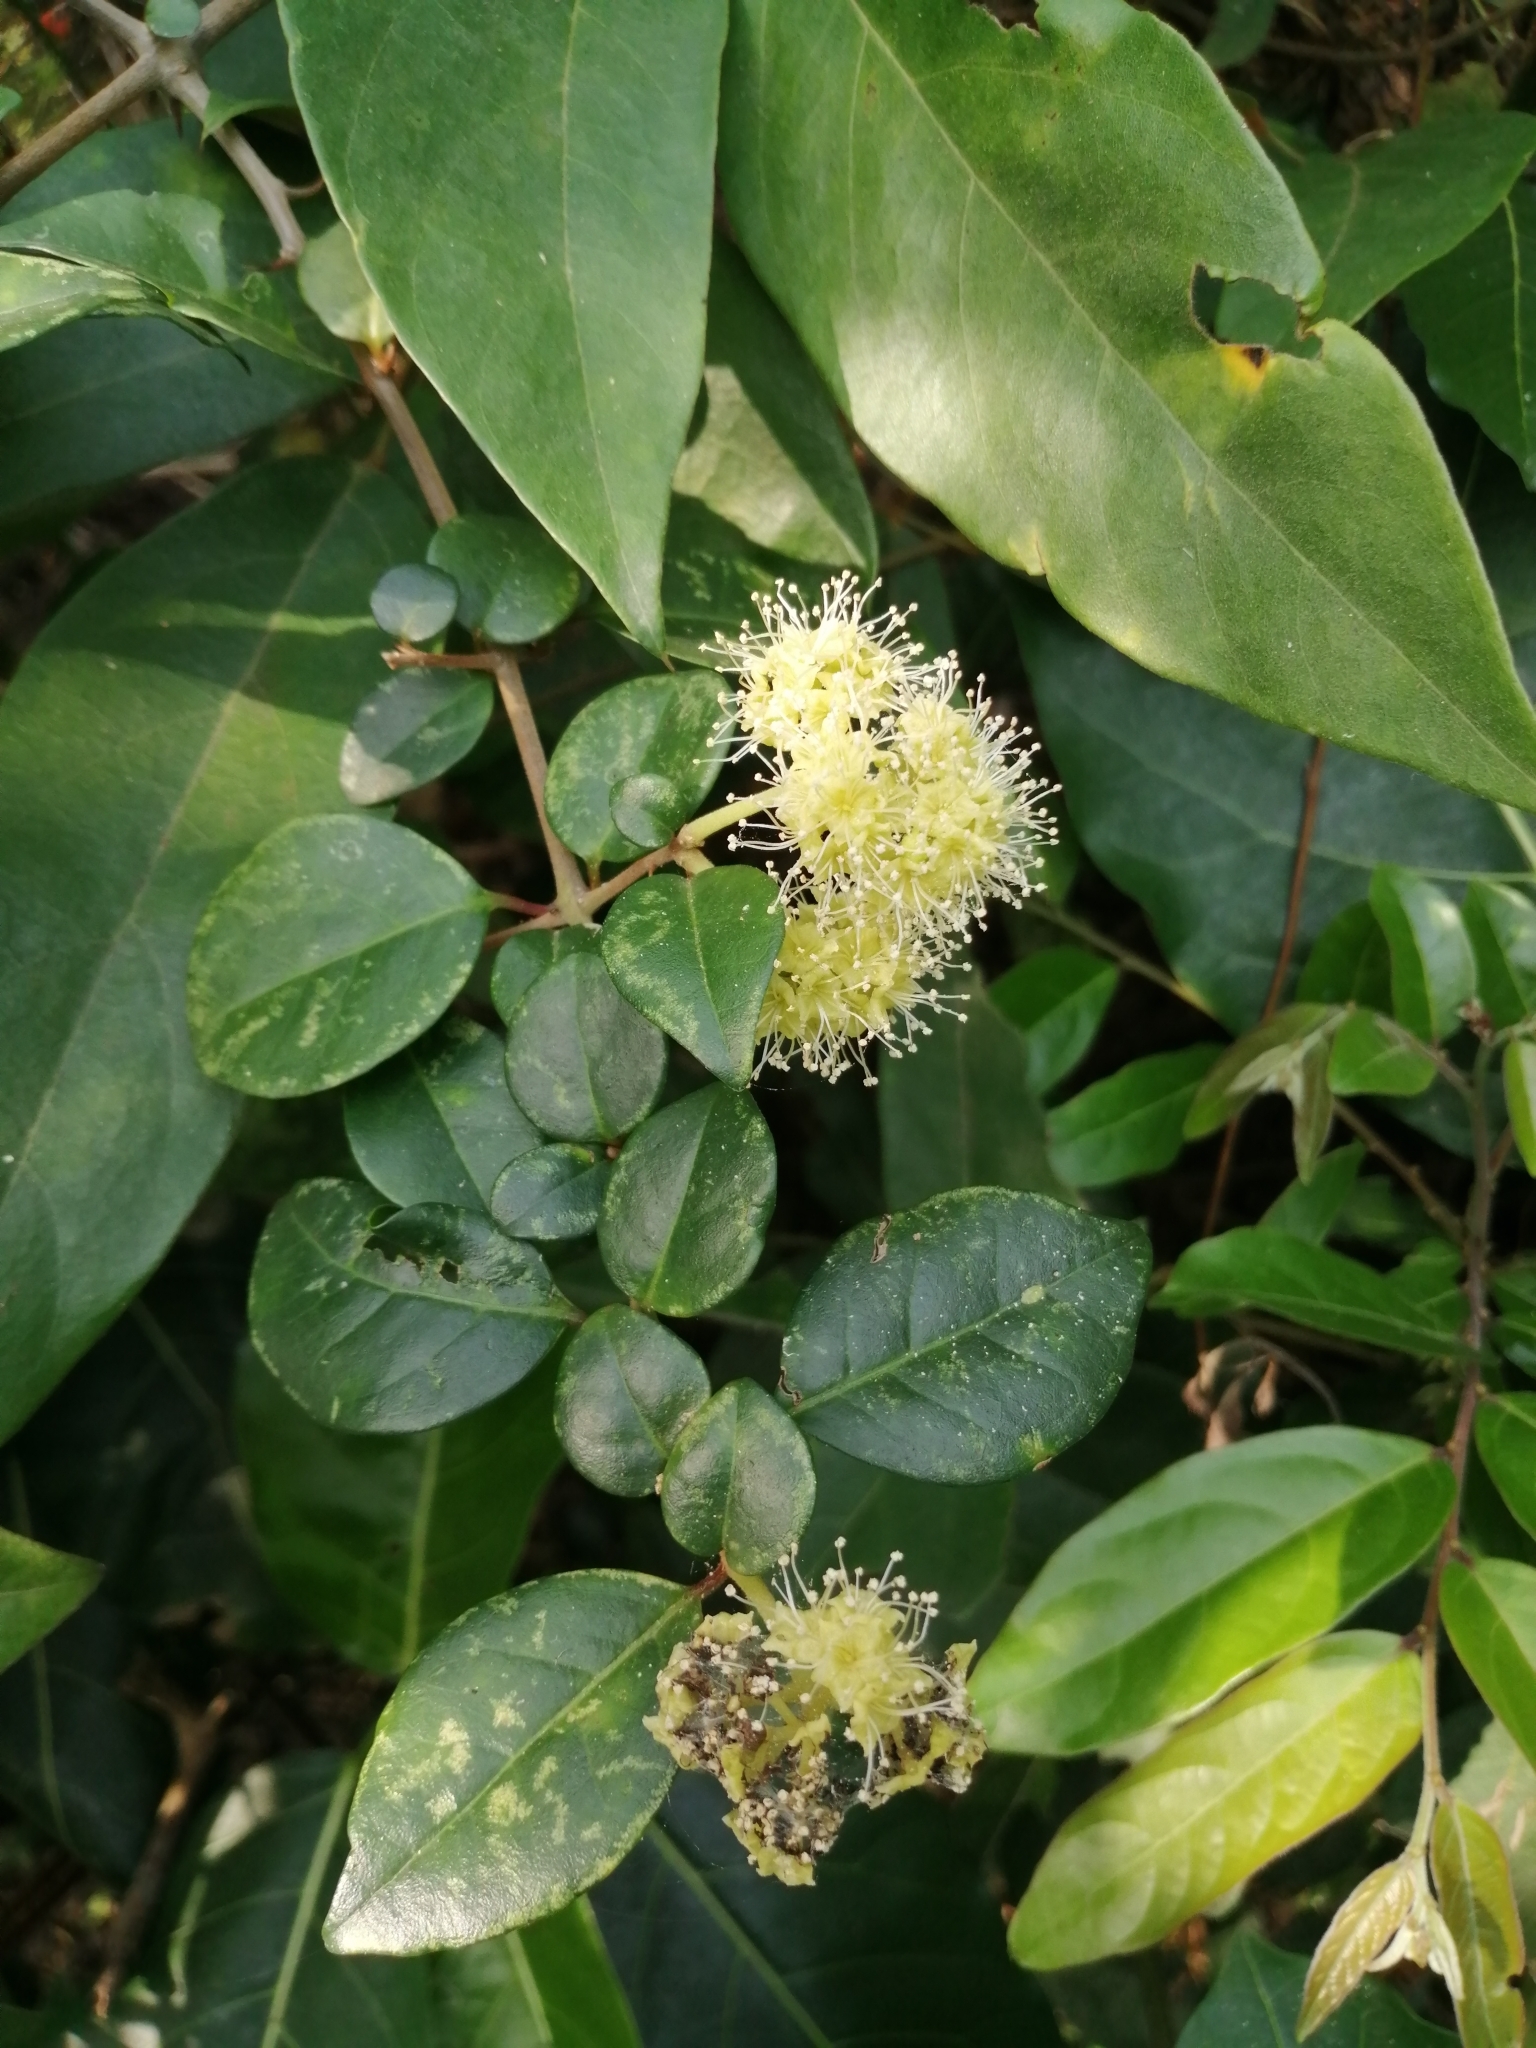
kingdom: Plantae
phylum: Tracheophyta
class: Magnoliopsida
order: Caryophyllales
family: Nyctaginaceae
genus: Pisonia
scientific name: Pisonia aculeata
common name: Cockspur vine
